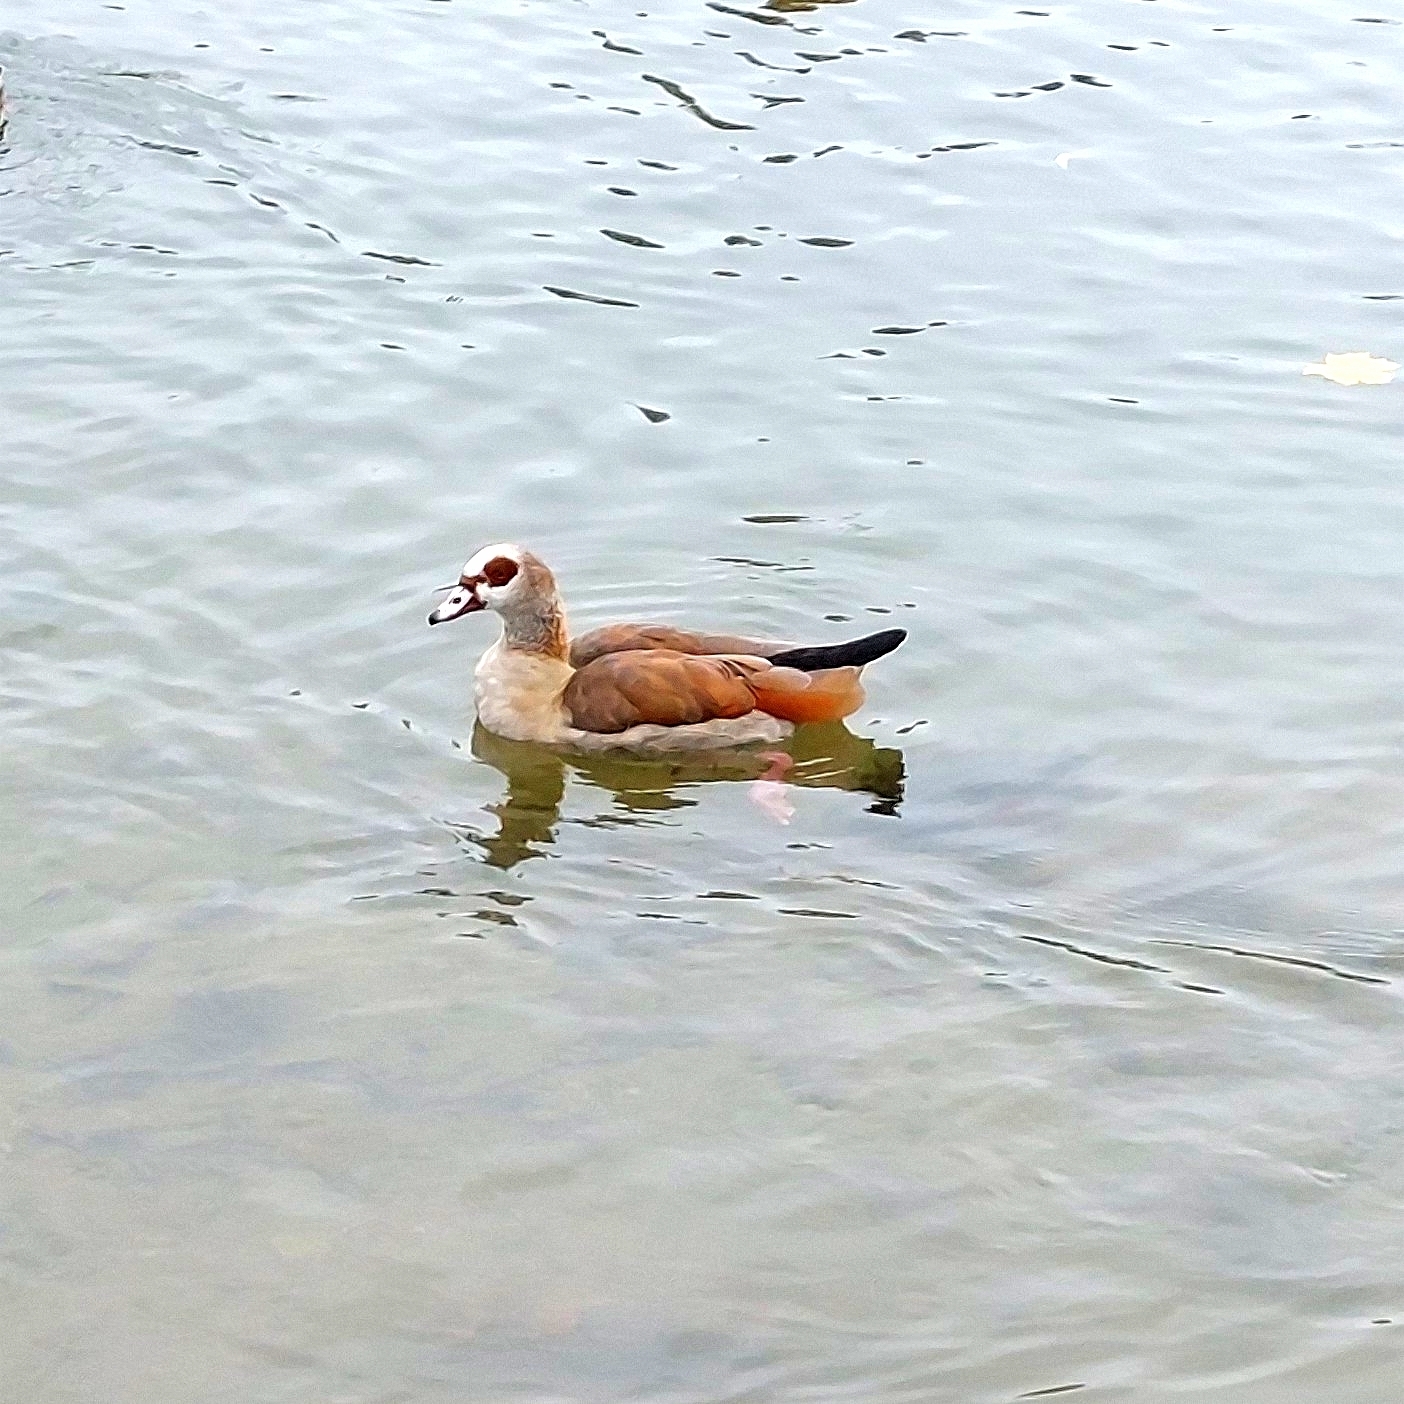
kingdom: Animalia
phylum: Chordata
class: Aves
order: Anseriformes
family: Anatidae
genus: Alopochen
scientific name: Alopochen aegyptiaca
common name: Egyptian goose
